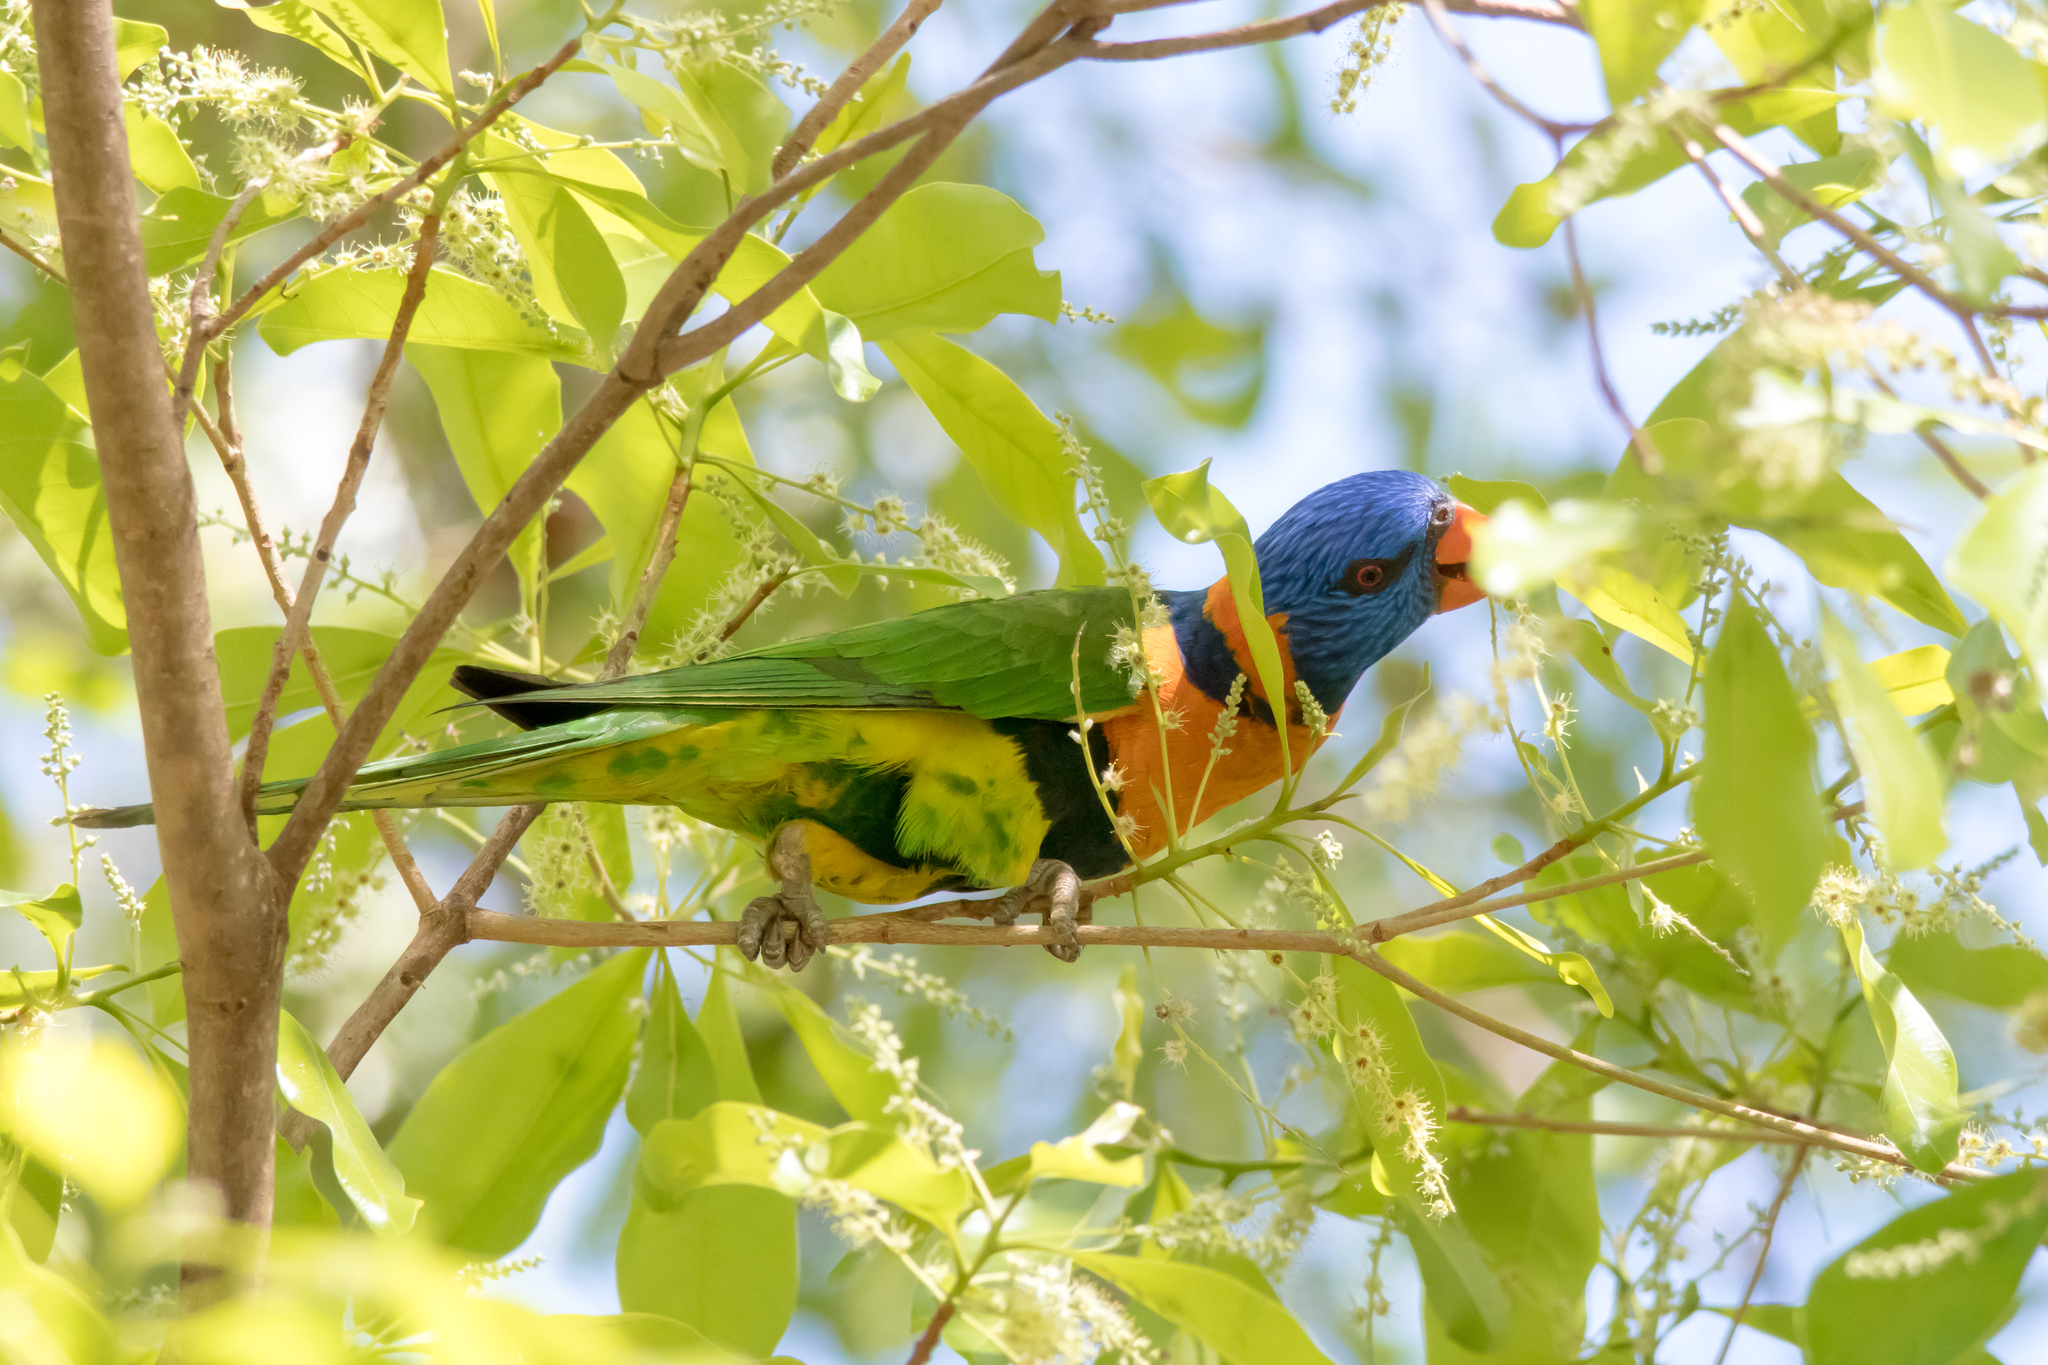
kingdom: Animalia
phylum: Chordata
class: Aves
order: Psittaciformes
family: Psittacidae
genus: Trichoglossus
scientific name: Trichoglossus rubritorquis
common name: Red-collared lorikeet
